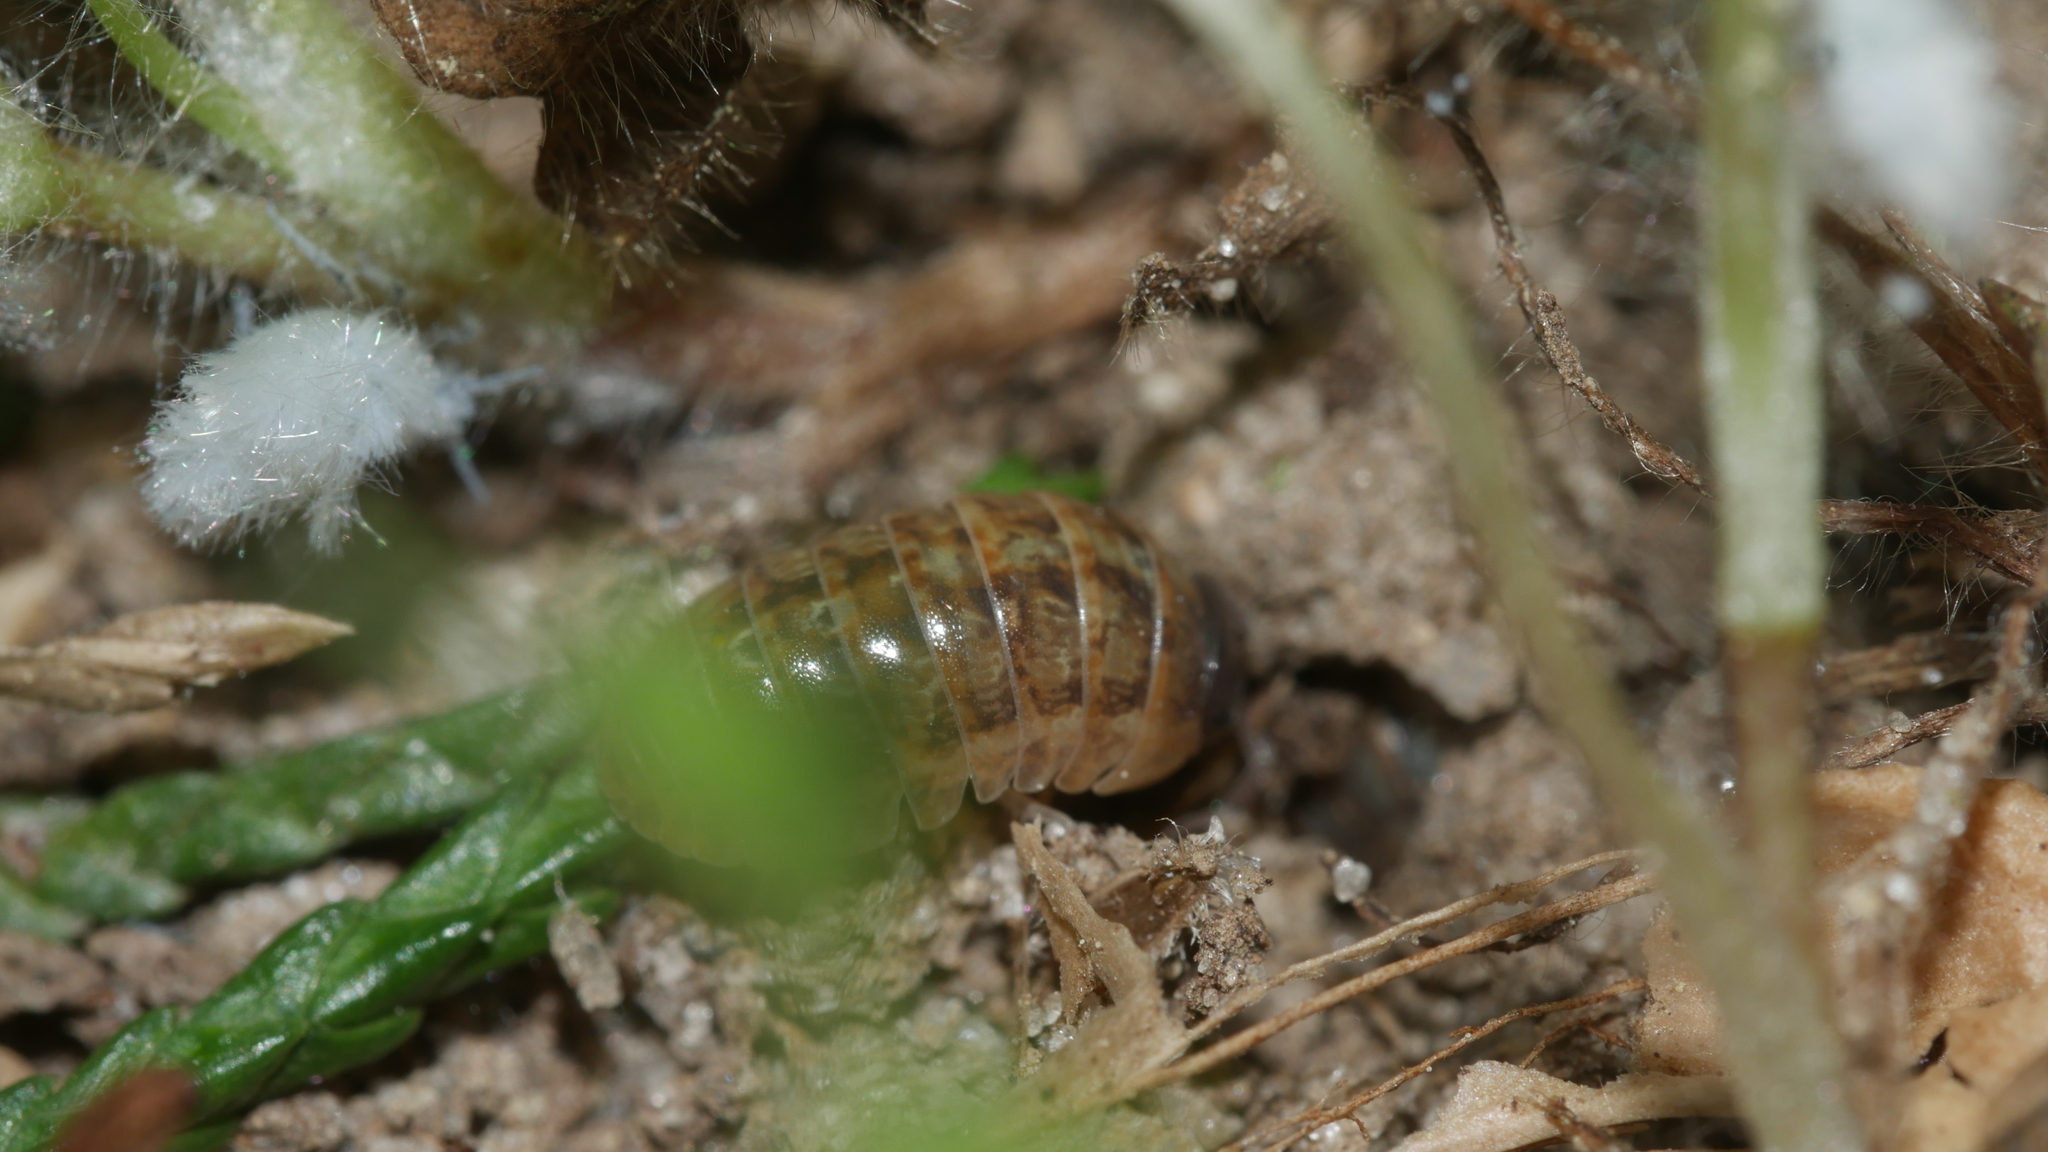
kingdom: Animalia
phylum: Arthropoda
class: Malacostraca
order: Isopoda
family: Armadillidiidae
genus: Armadillidium
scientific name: Armadillidium vulgare
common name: Common pill woodlouse
